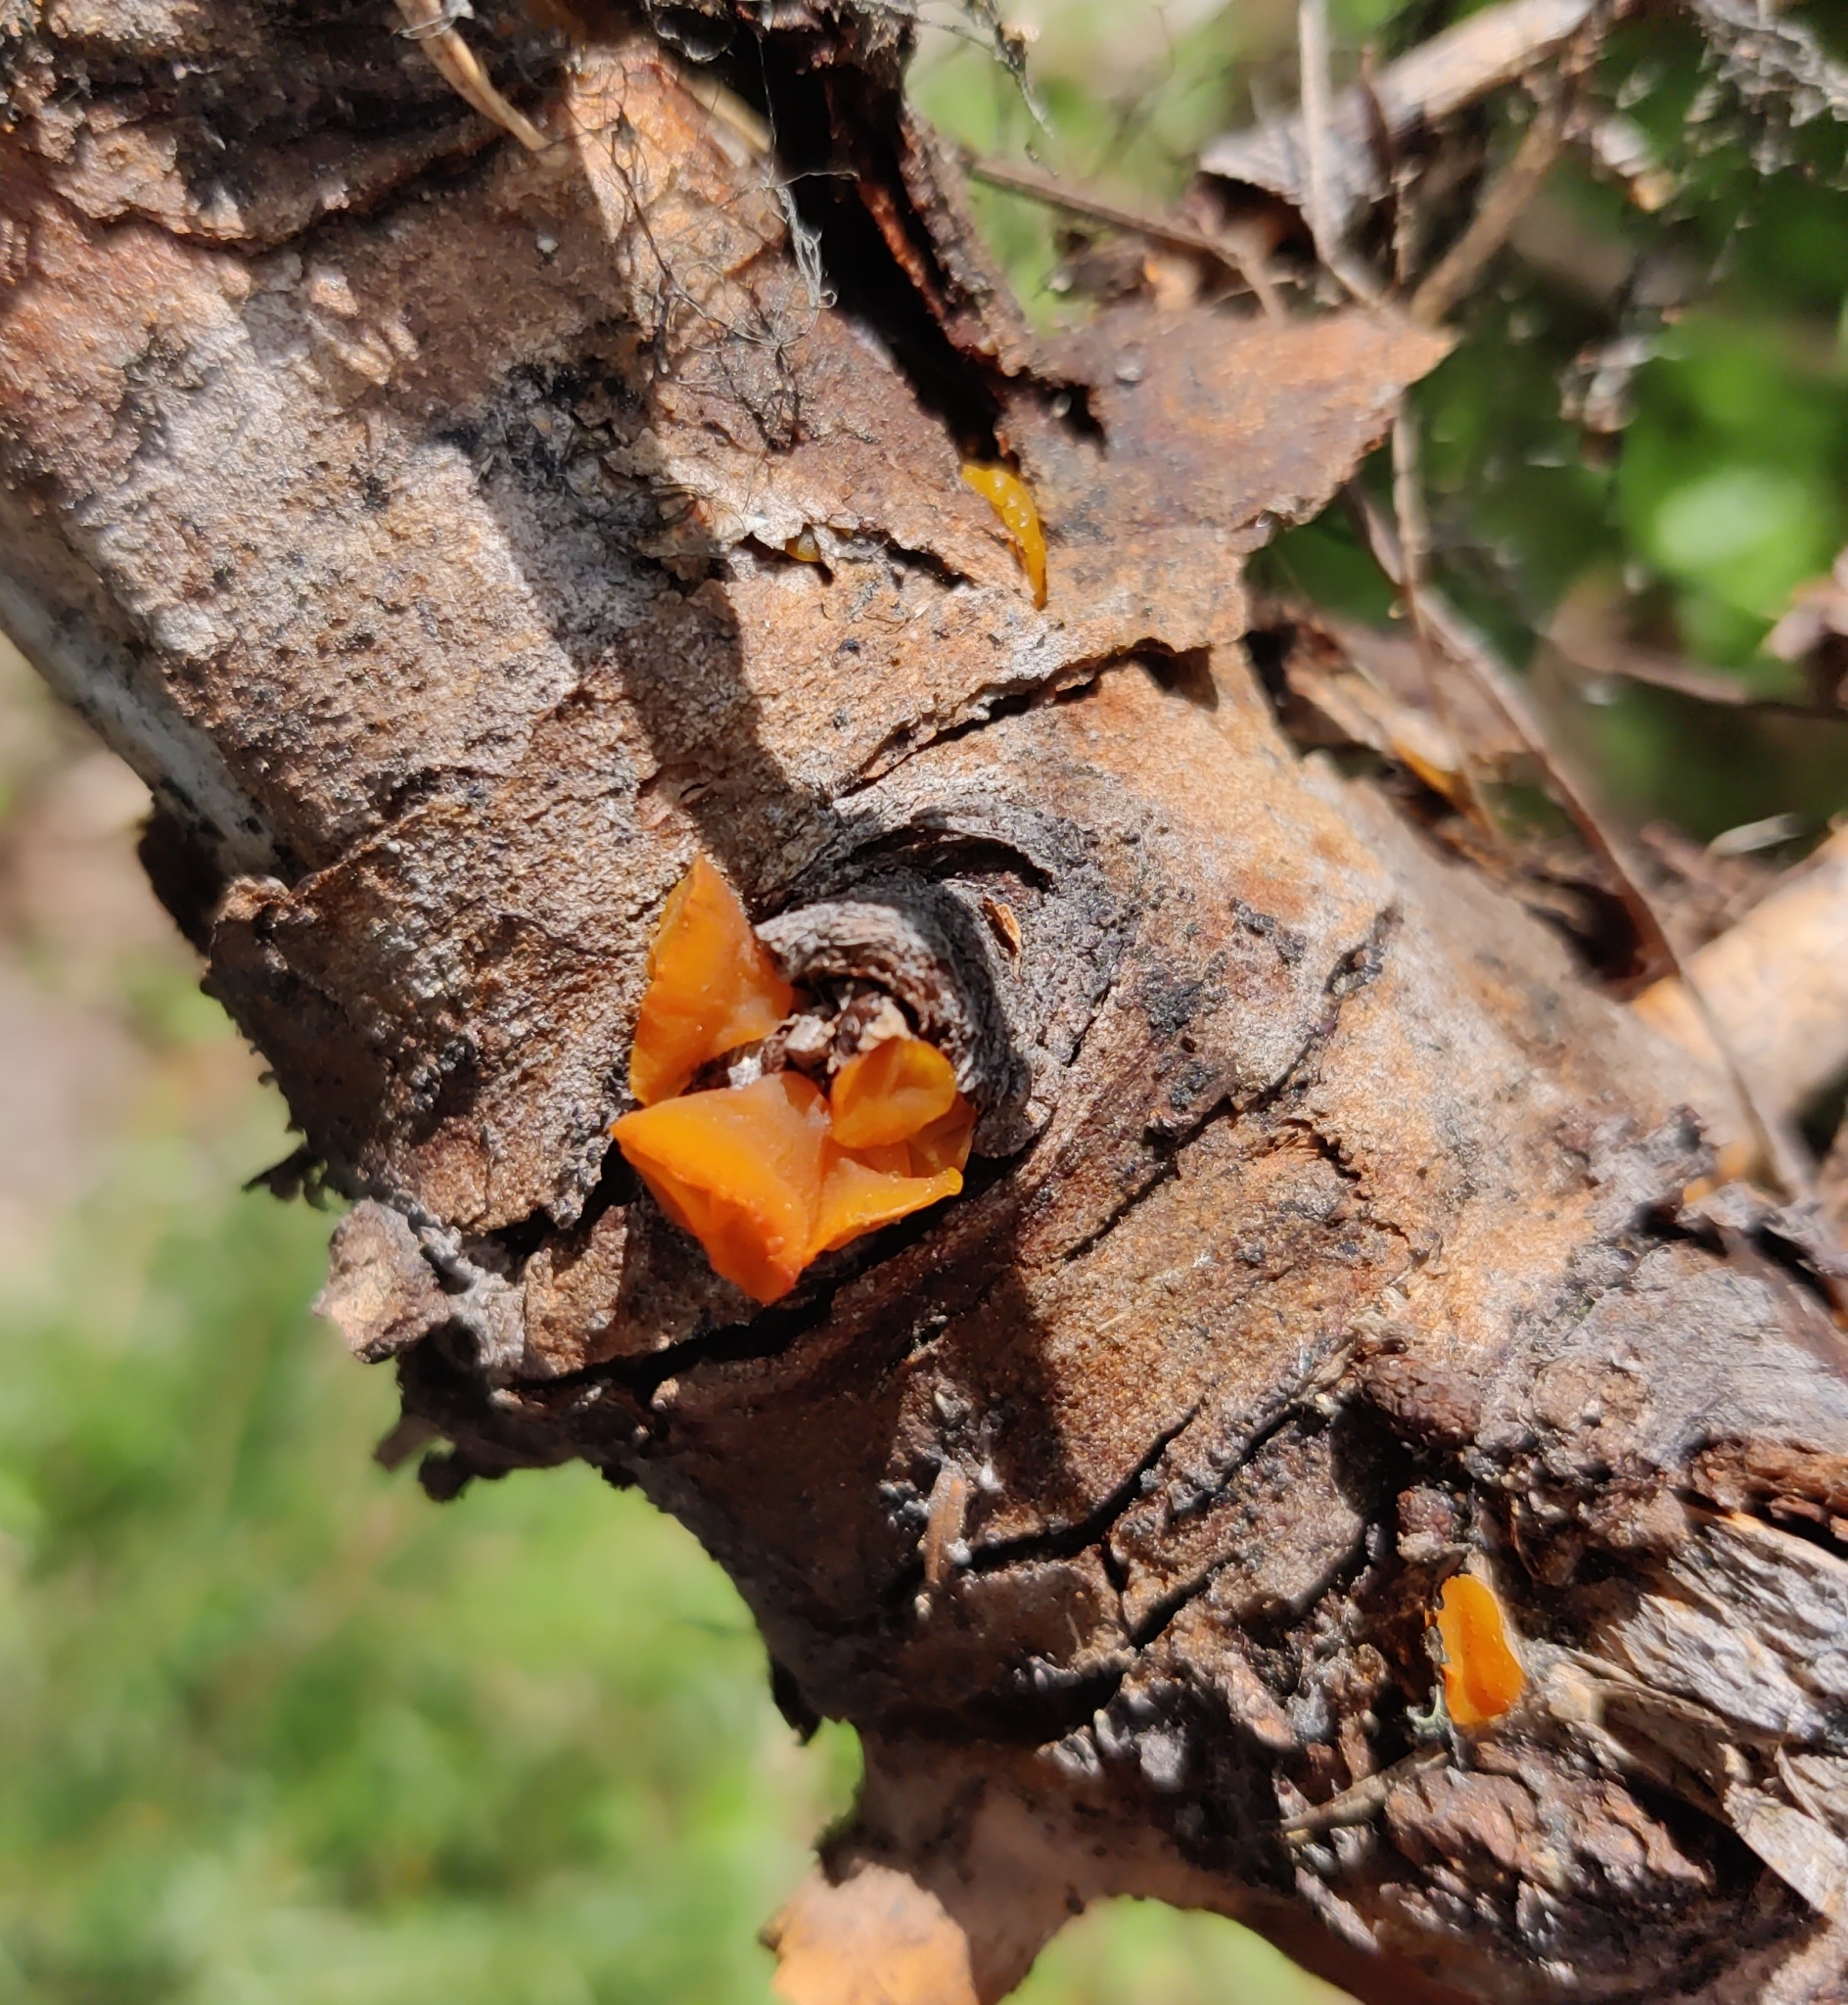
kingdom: Fungi
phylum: Basidiomycota
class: Dacrymycetes
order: Dacrymycetales
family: Dacrymycetaceae
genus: Guepiniopsis
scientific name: Guepiniopsis alpina
